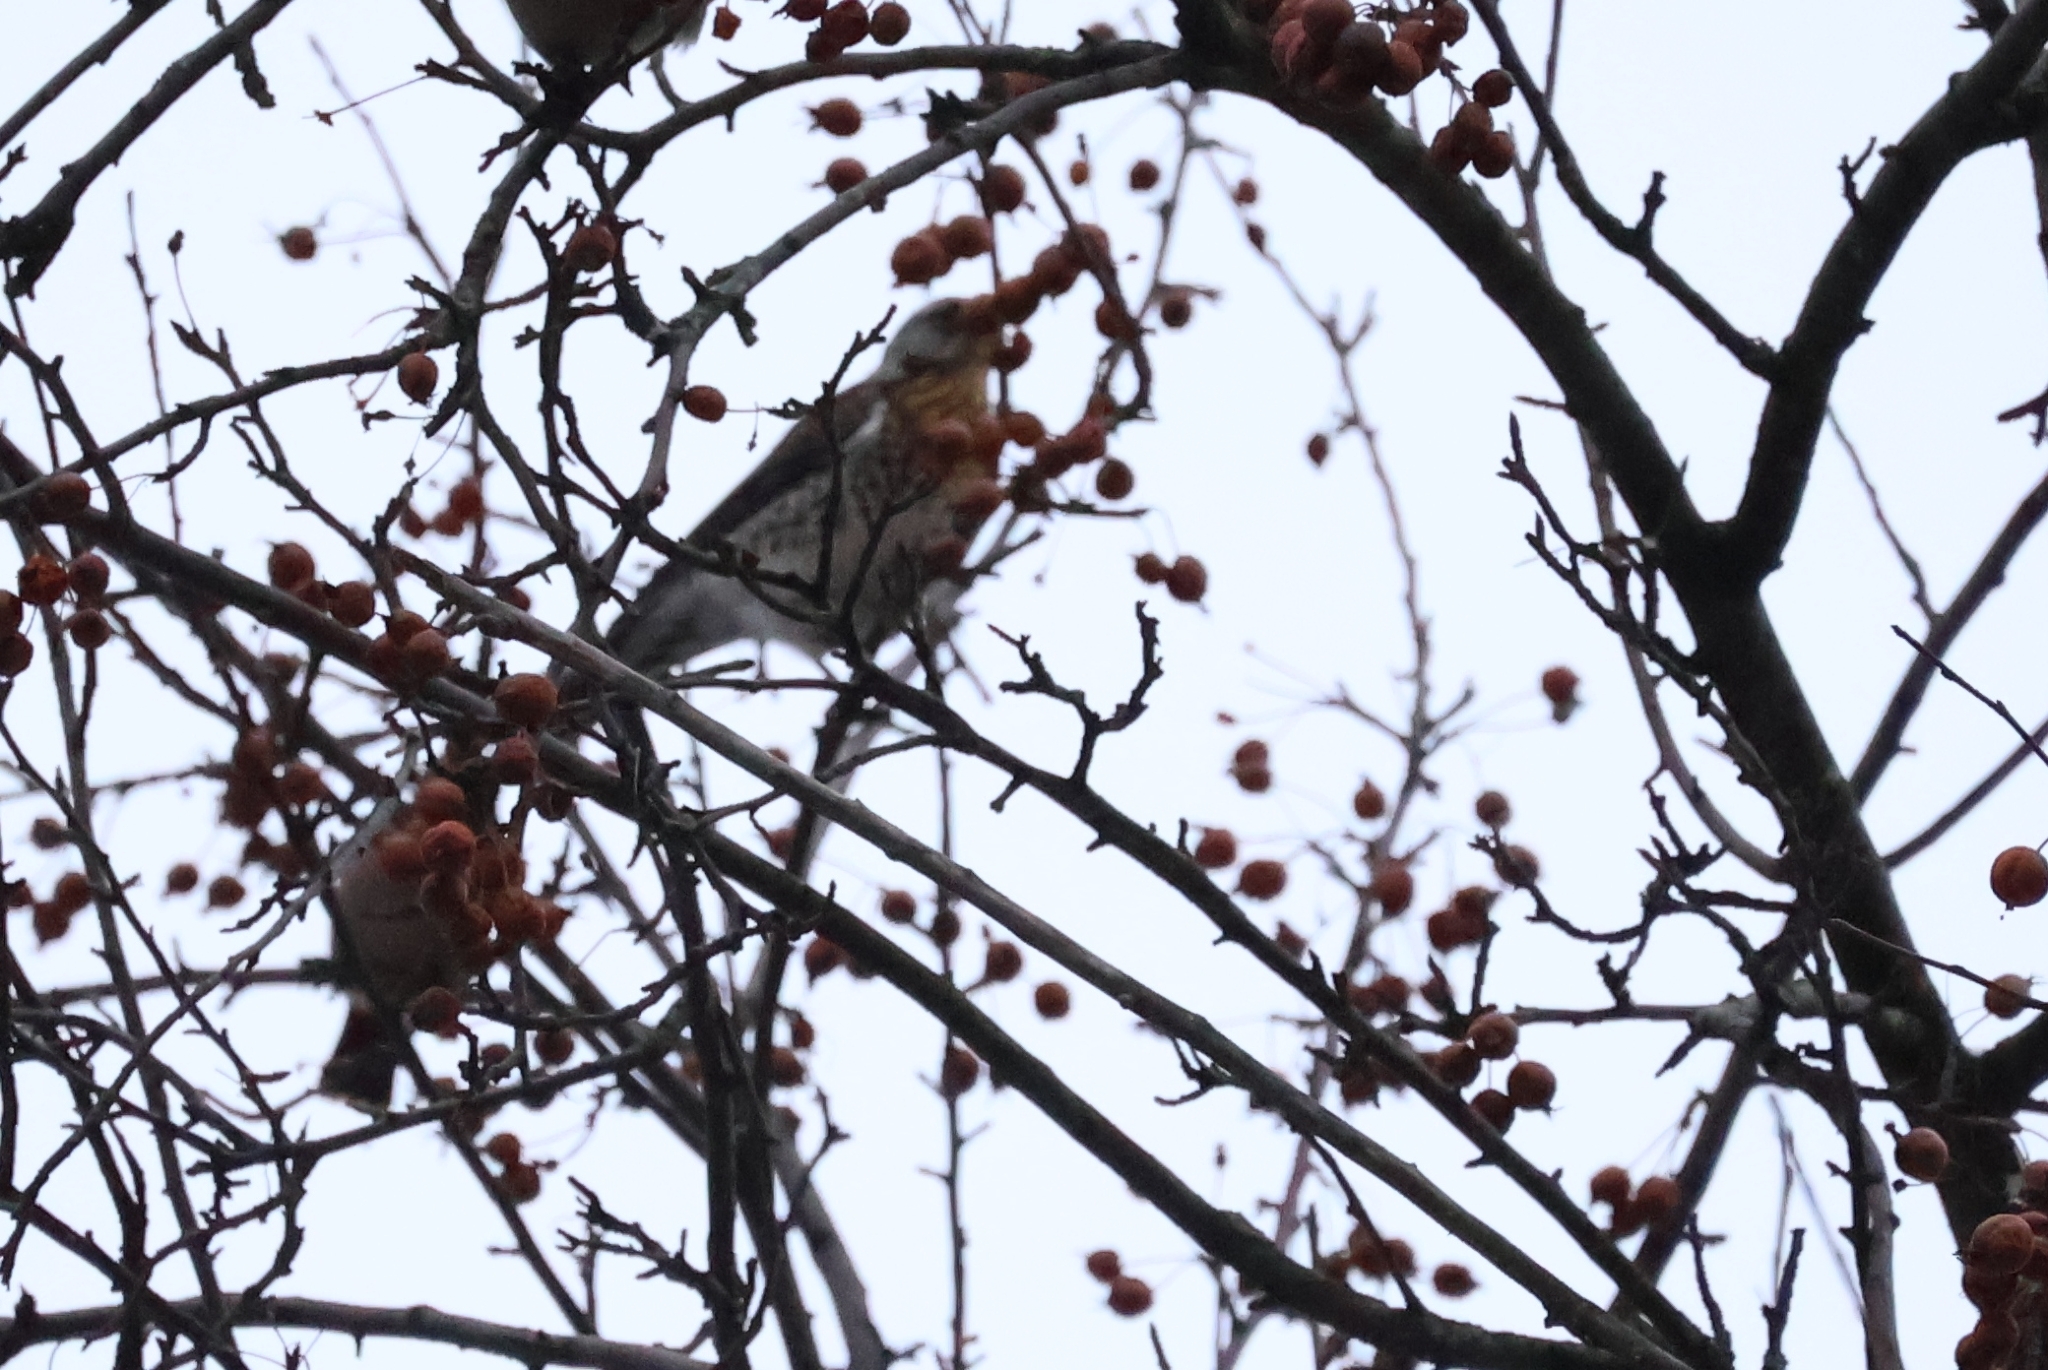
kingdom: Animalia
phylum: Chordata
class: Aves
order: Passeriformes
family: Turdidae
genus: Turdus
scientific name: Turdus pilaris
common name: Fieldfare
